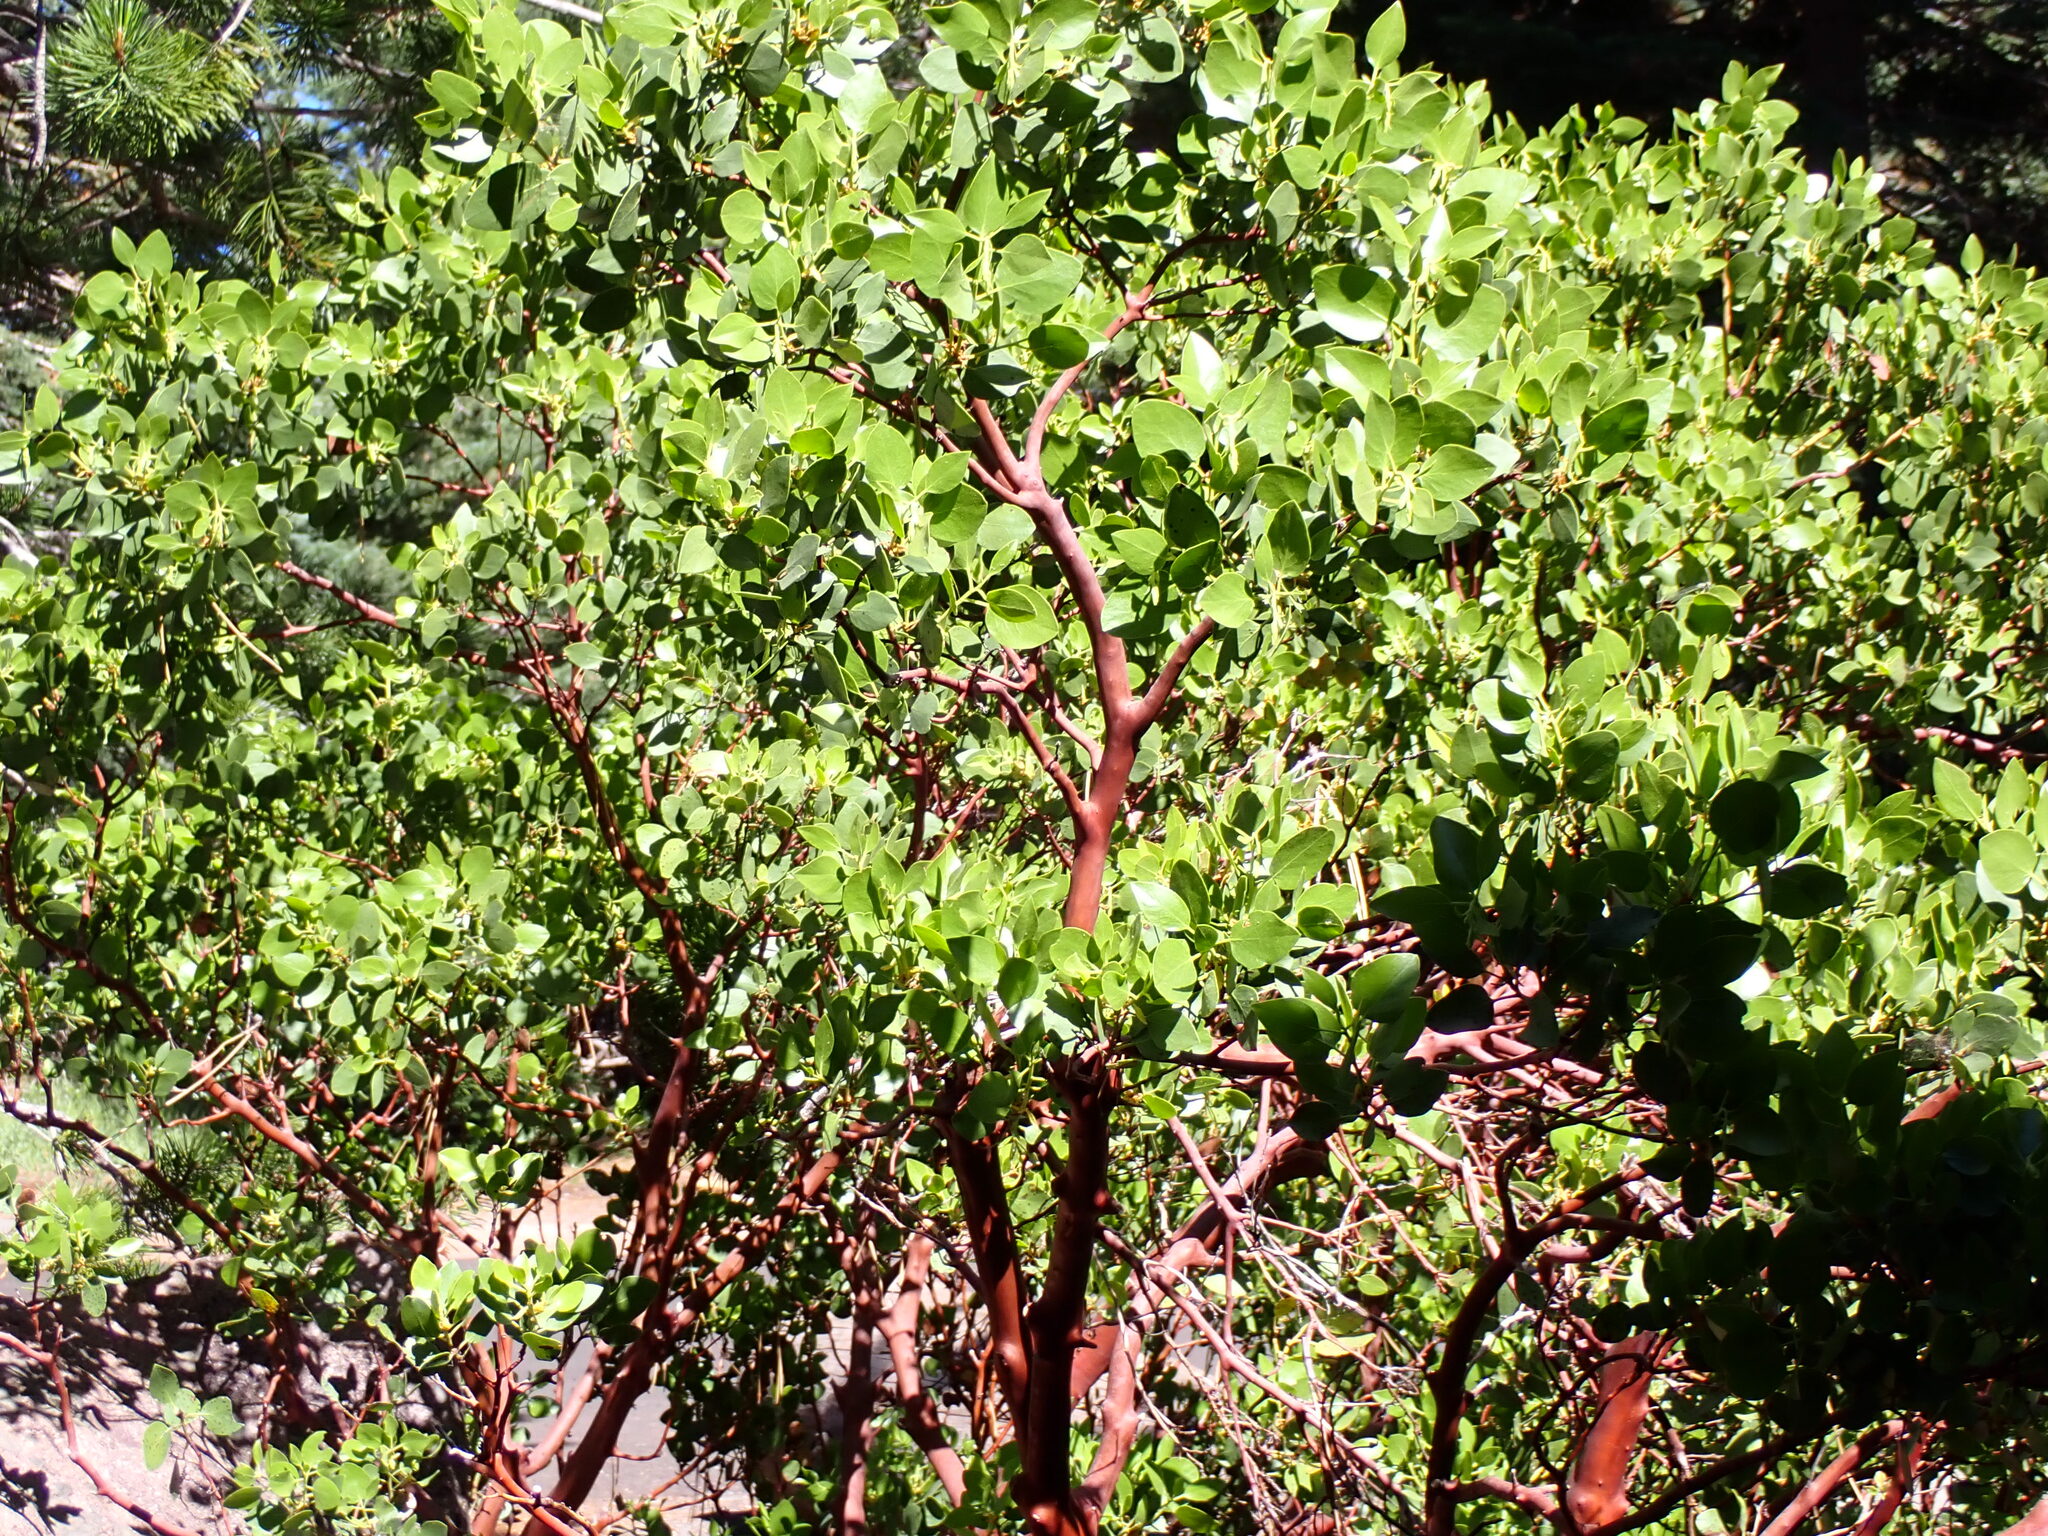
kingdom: Plantae
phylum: Tracheophyta
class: Magnoliopsida
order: Ericales
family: Ericaceae
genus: Arctostaphylos
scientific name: Arctostaphylos patula
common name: Green-leaf manzanita
